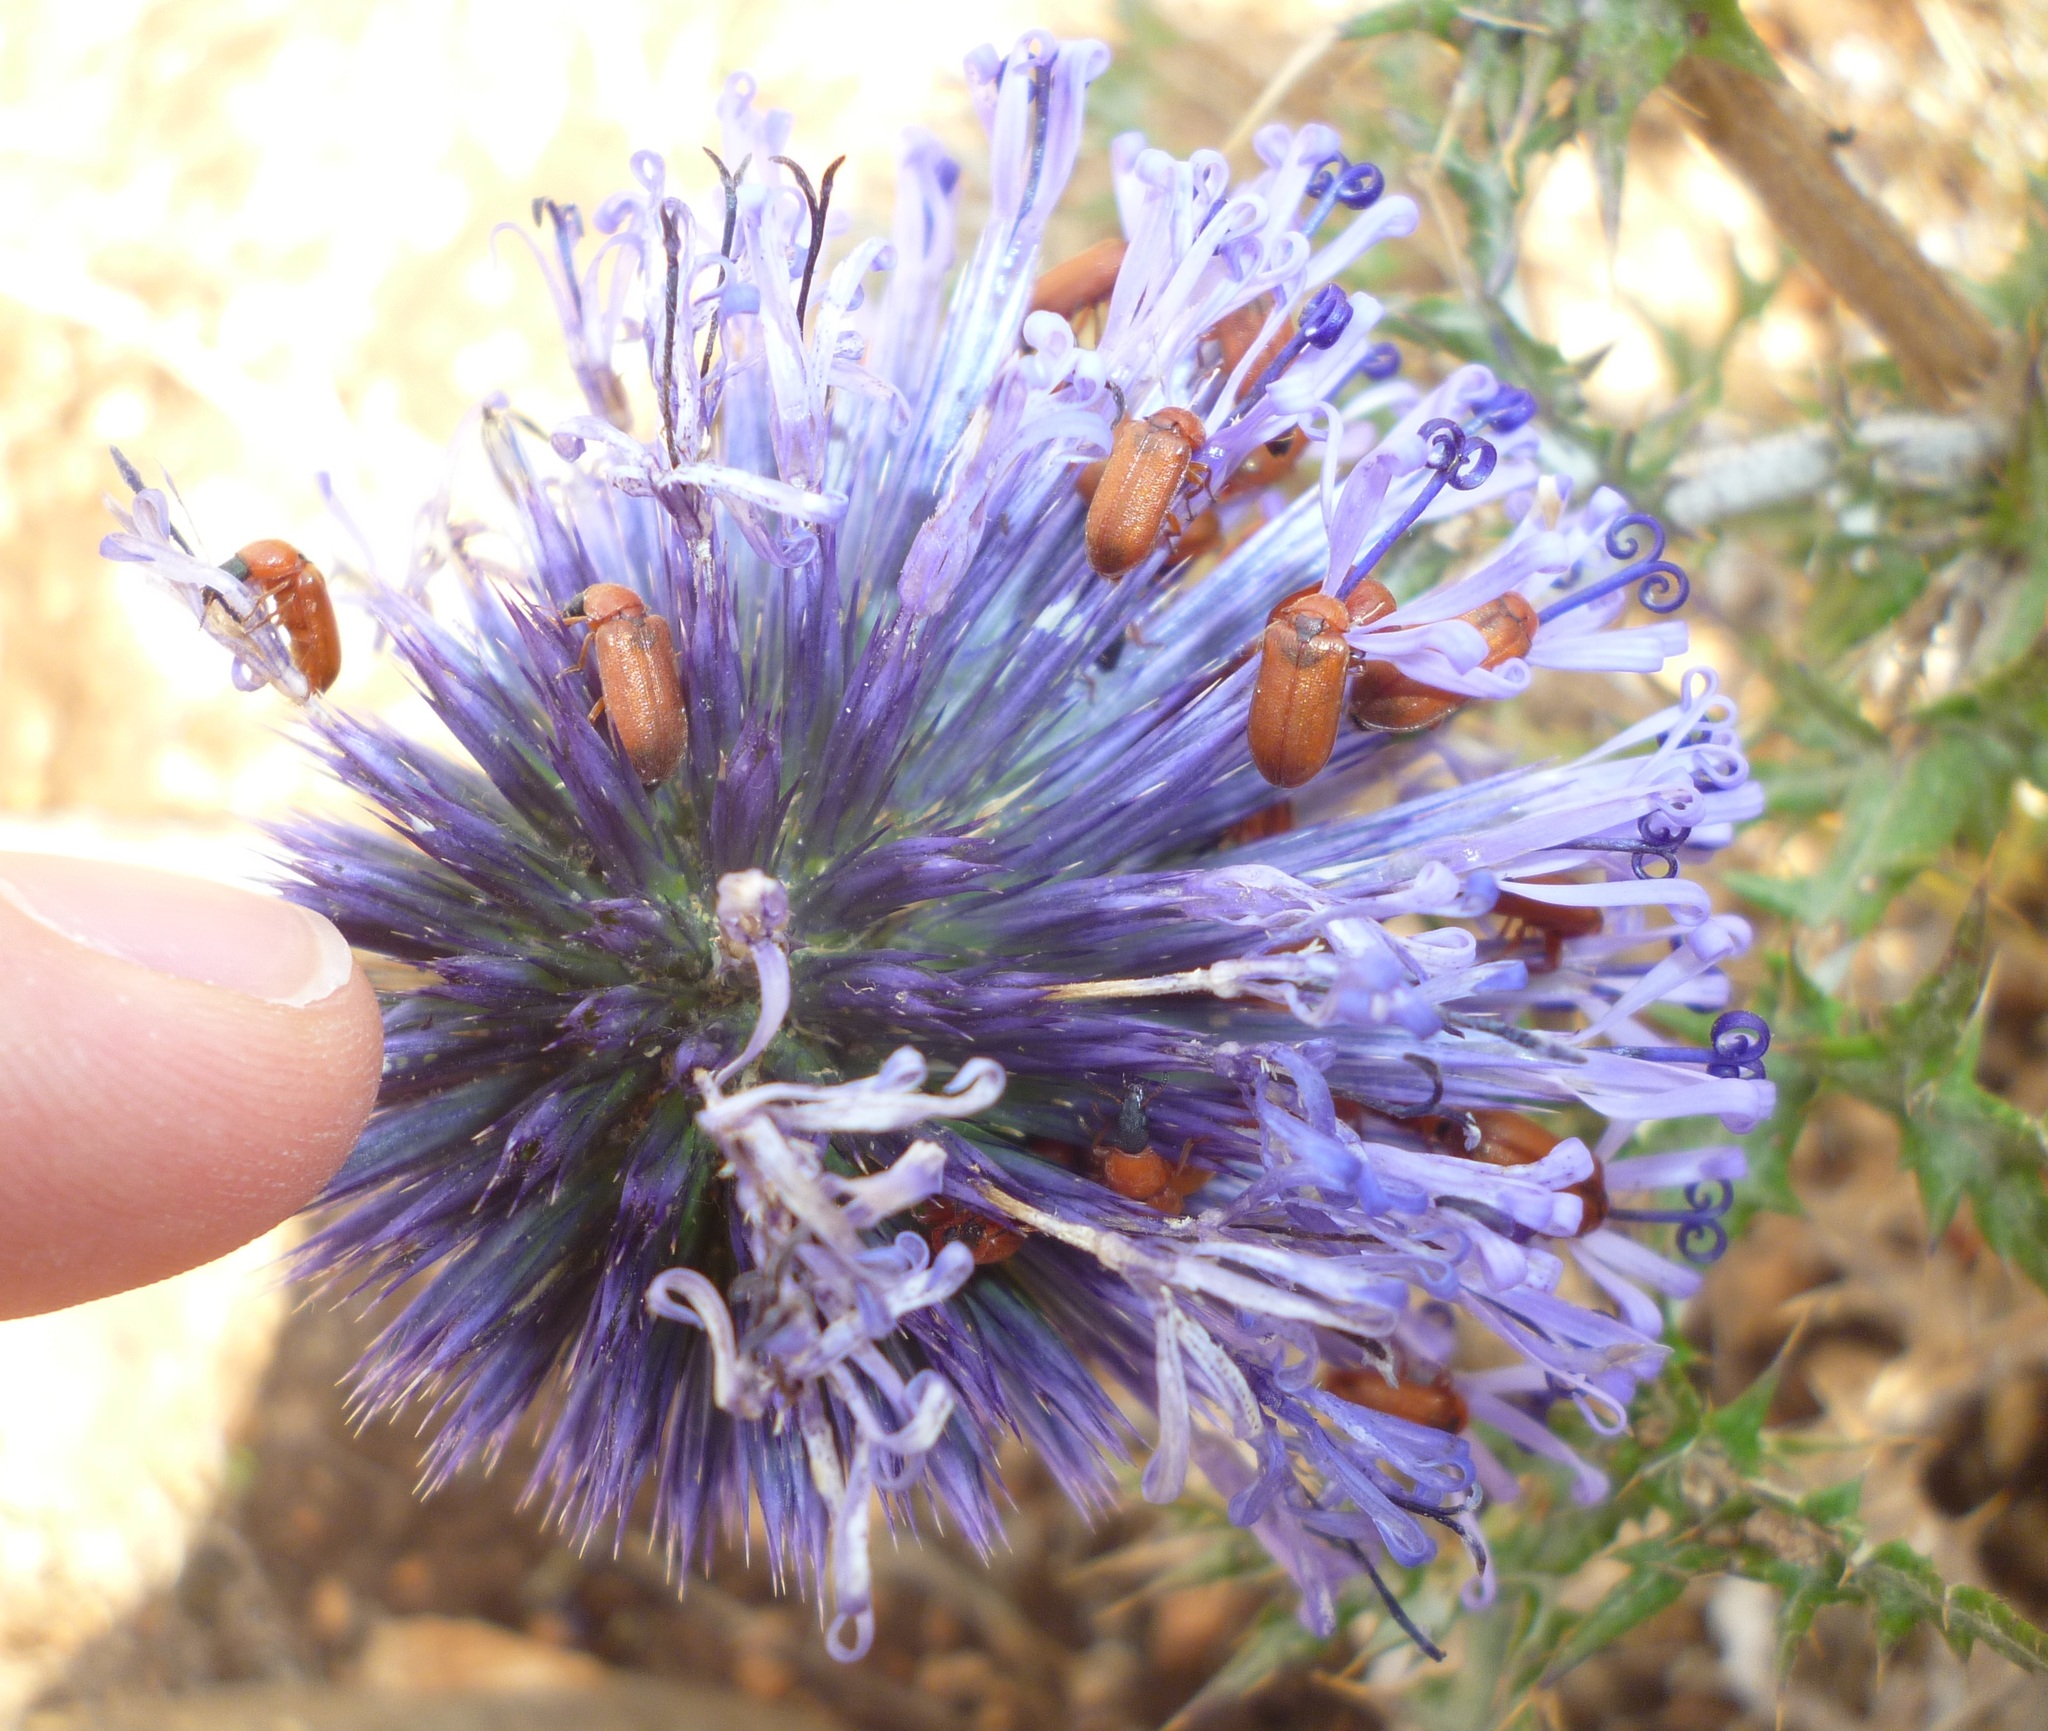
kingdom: Animalia
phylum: Arthropoda
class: Insecta
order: Coleoptera
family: Melyridae
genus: Melyris
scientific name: Melyris
